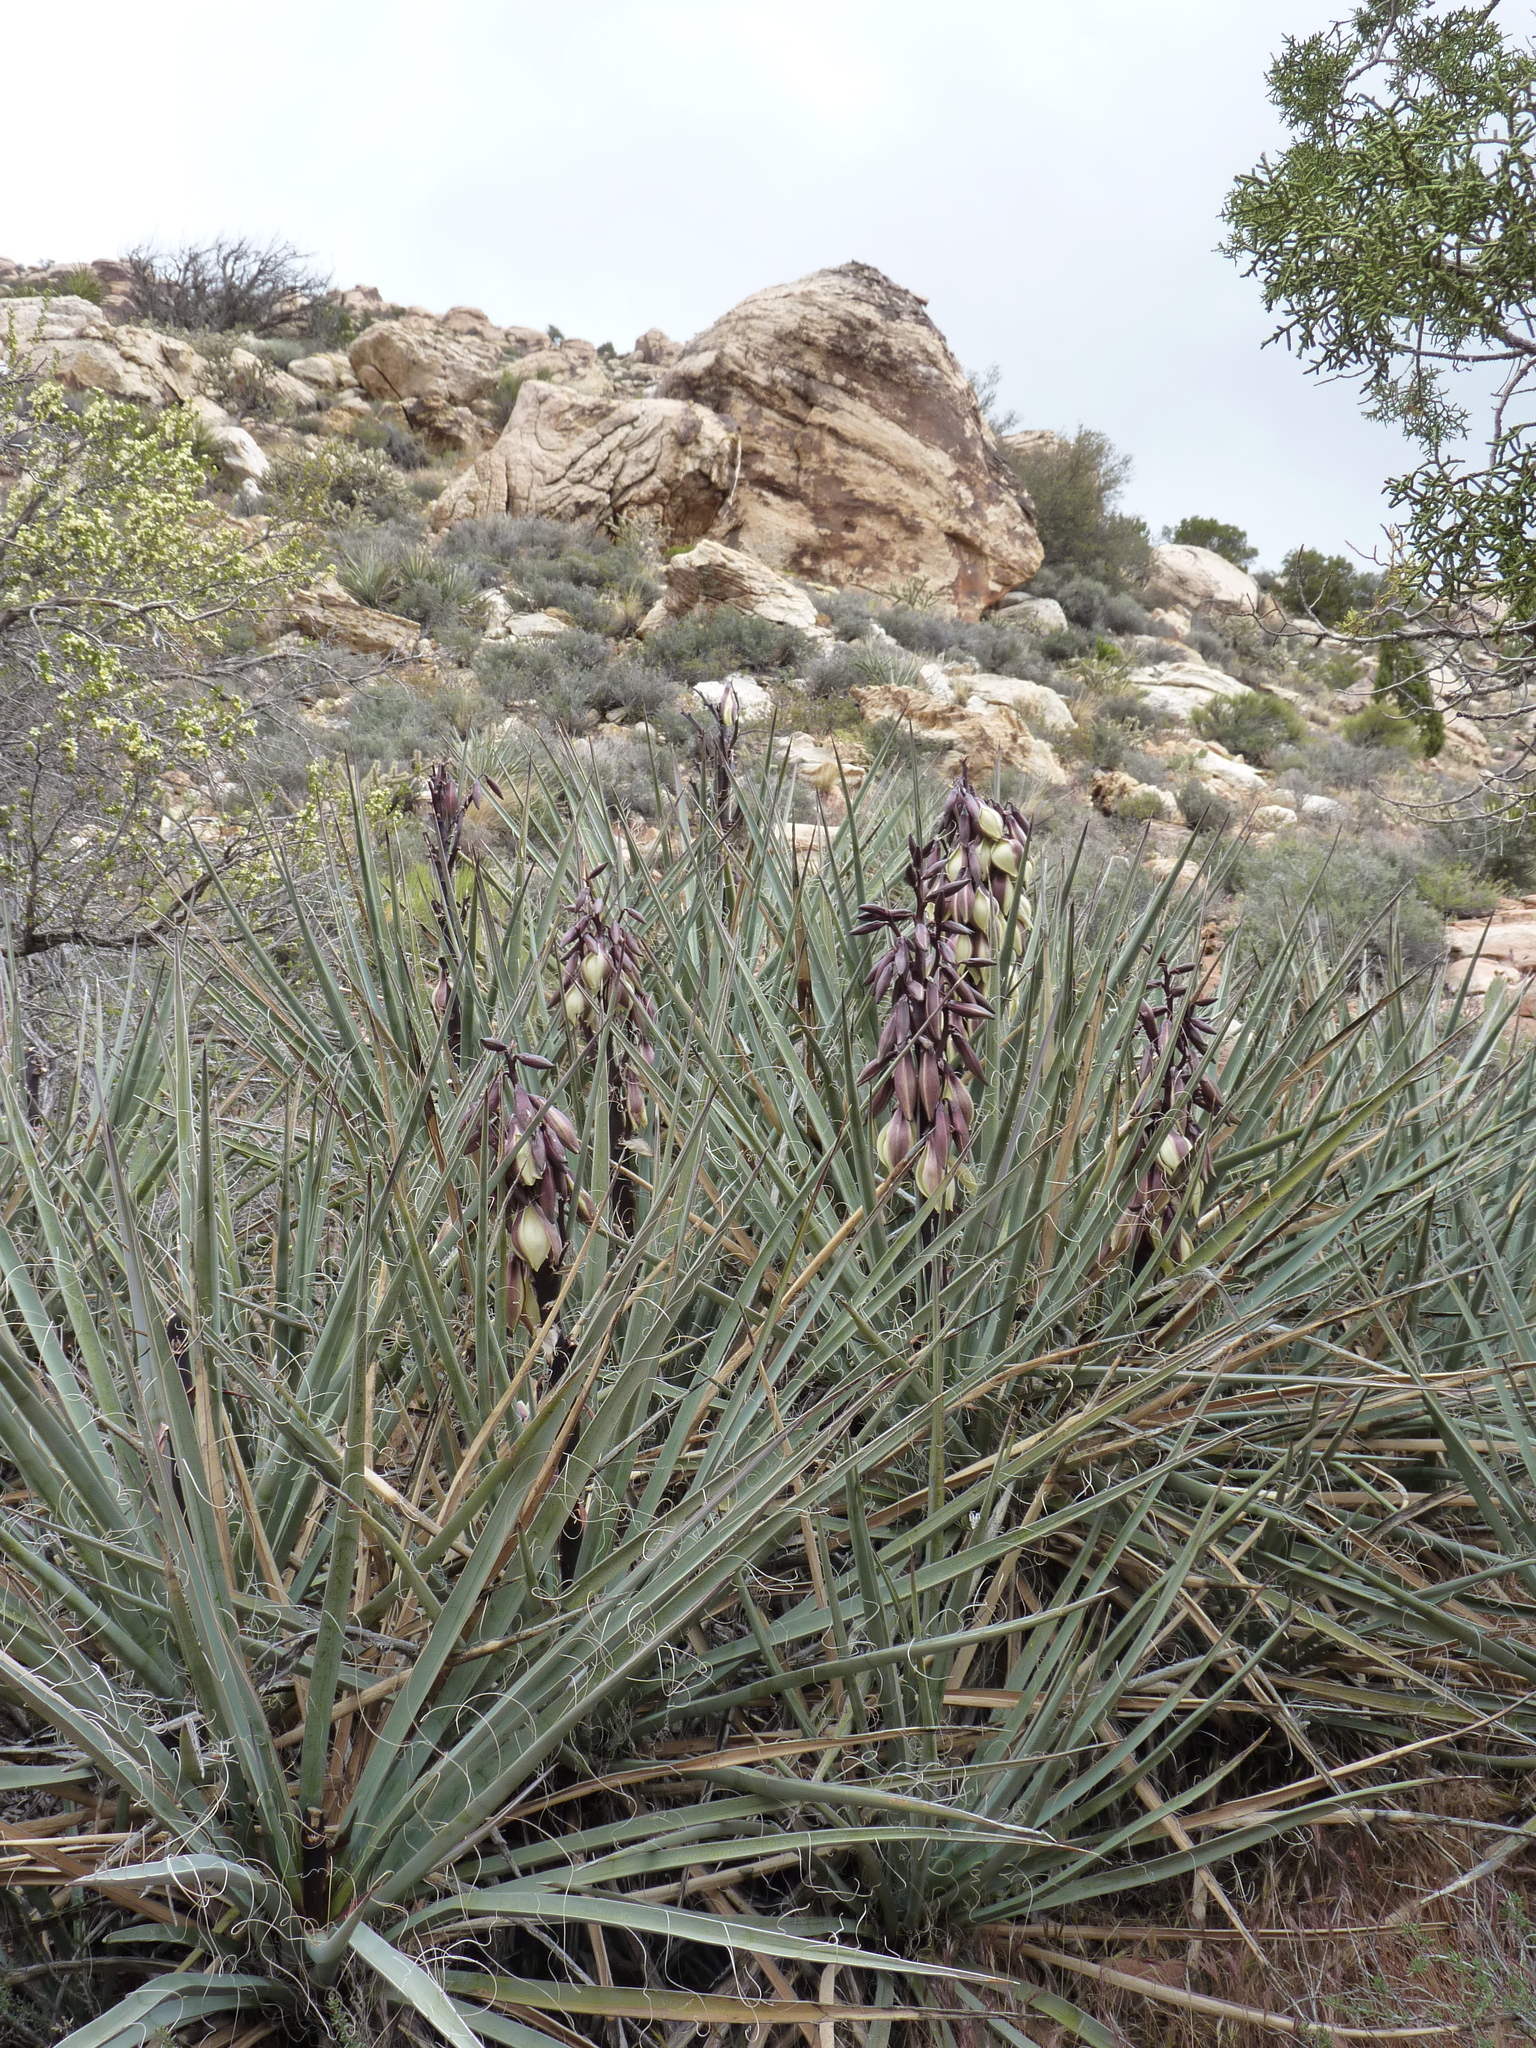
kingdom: Plantae
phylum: Tracheophyta
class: Liliopsida
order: Asparagales
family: Asparagaceae
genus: Yucca
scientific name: Yucca baccata
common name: Banana yucca
